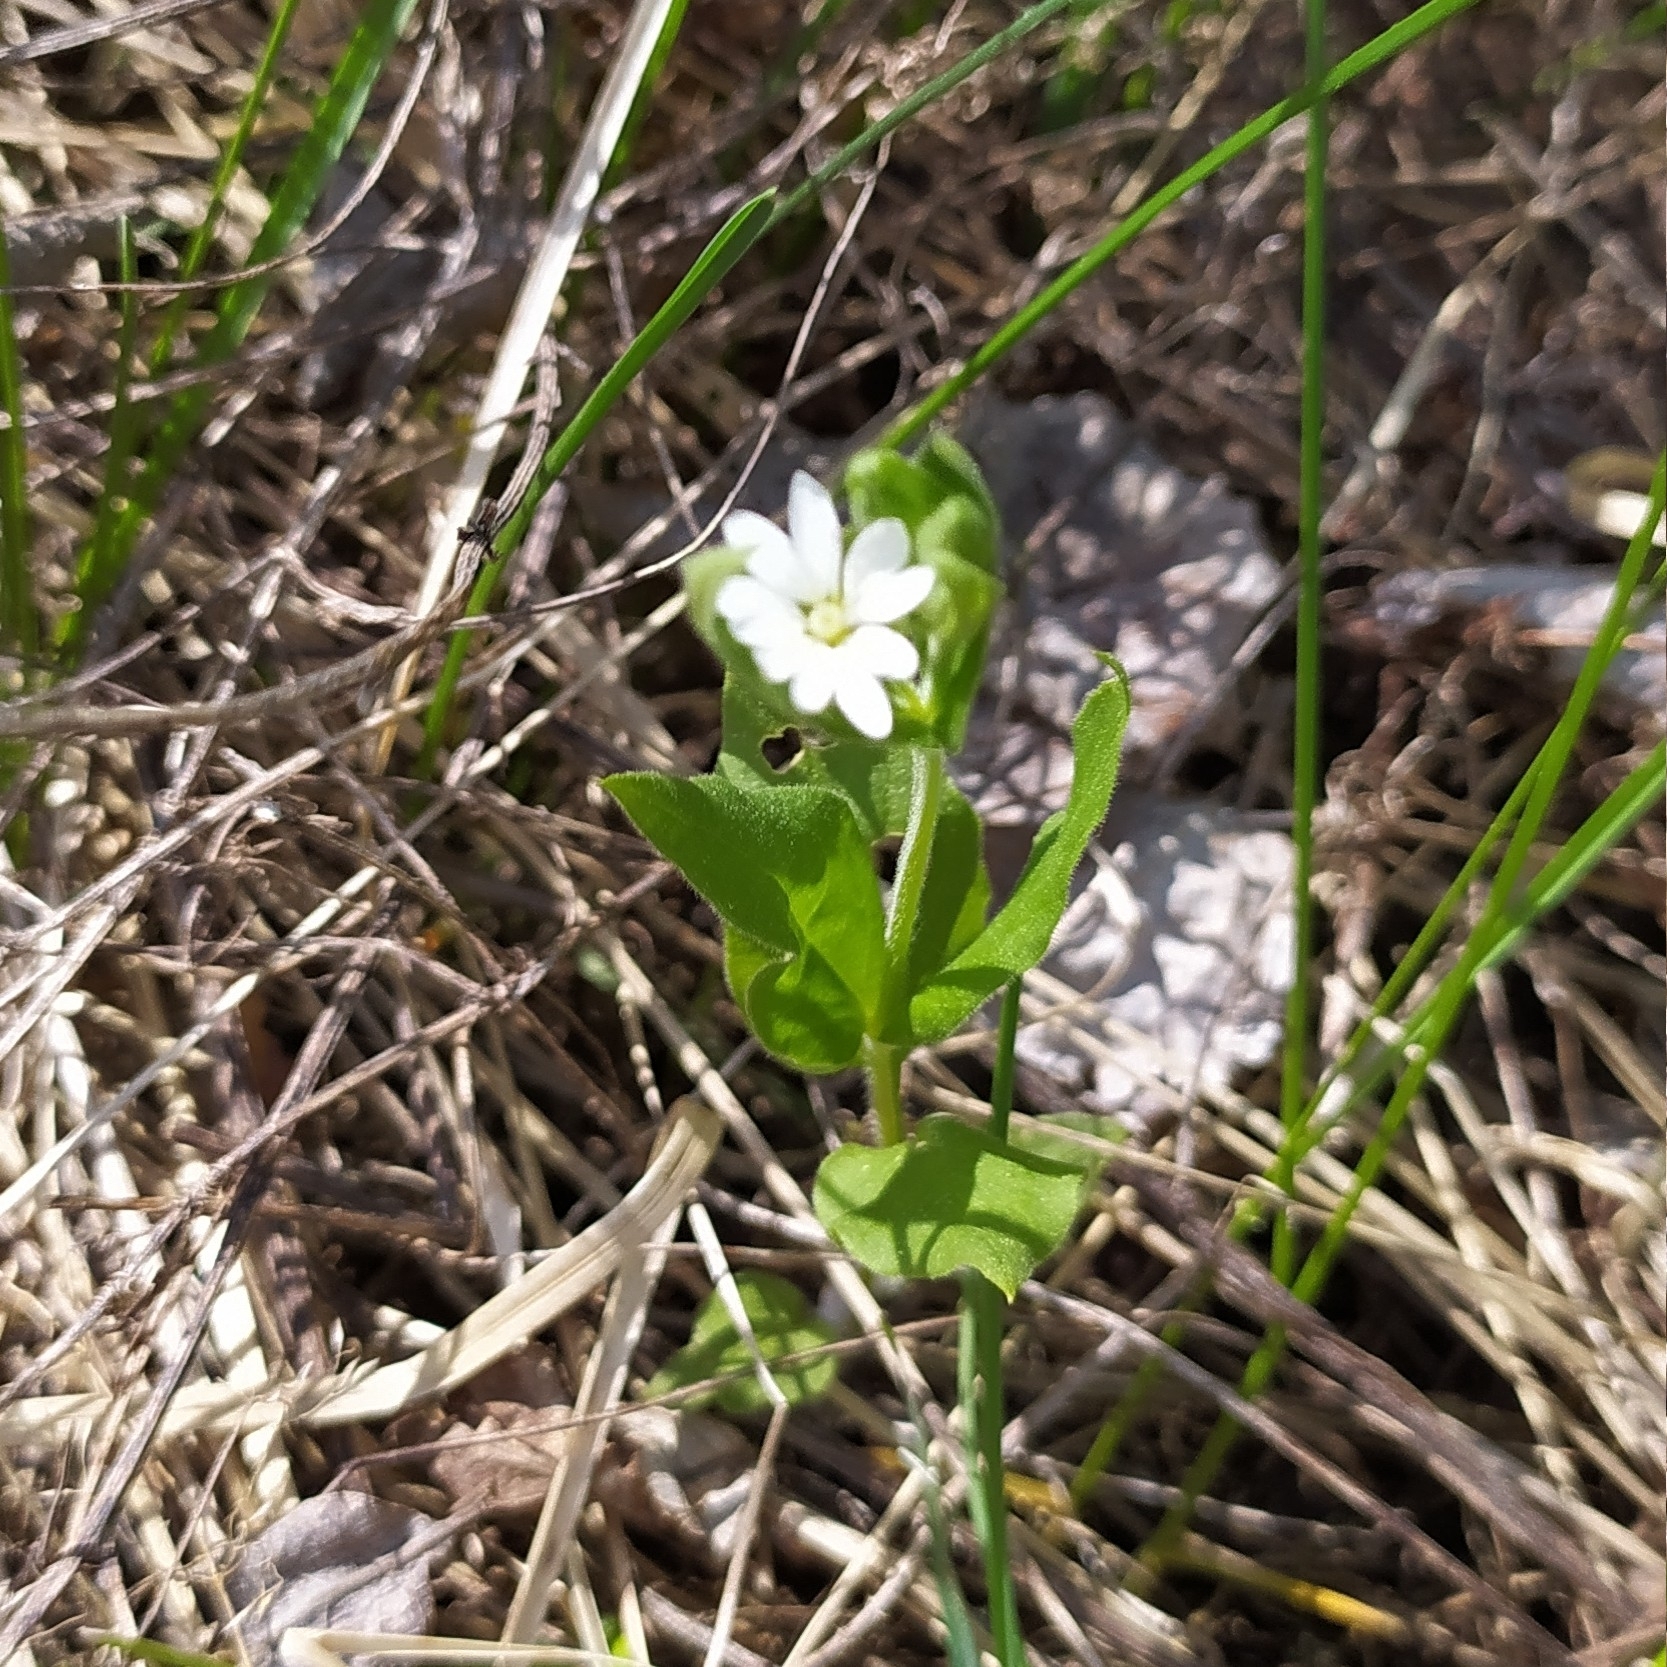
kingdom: Plantae
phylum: Tracheophyta
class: Magnoliopsida
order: Caryophyllales
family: Caryophyllaceae
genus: Stellaria
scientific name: Stellaria bungeana
